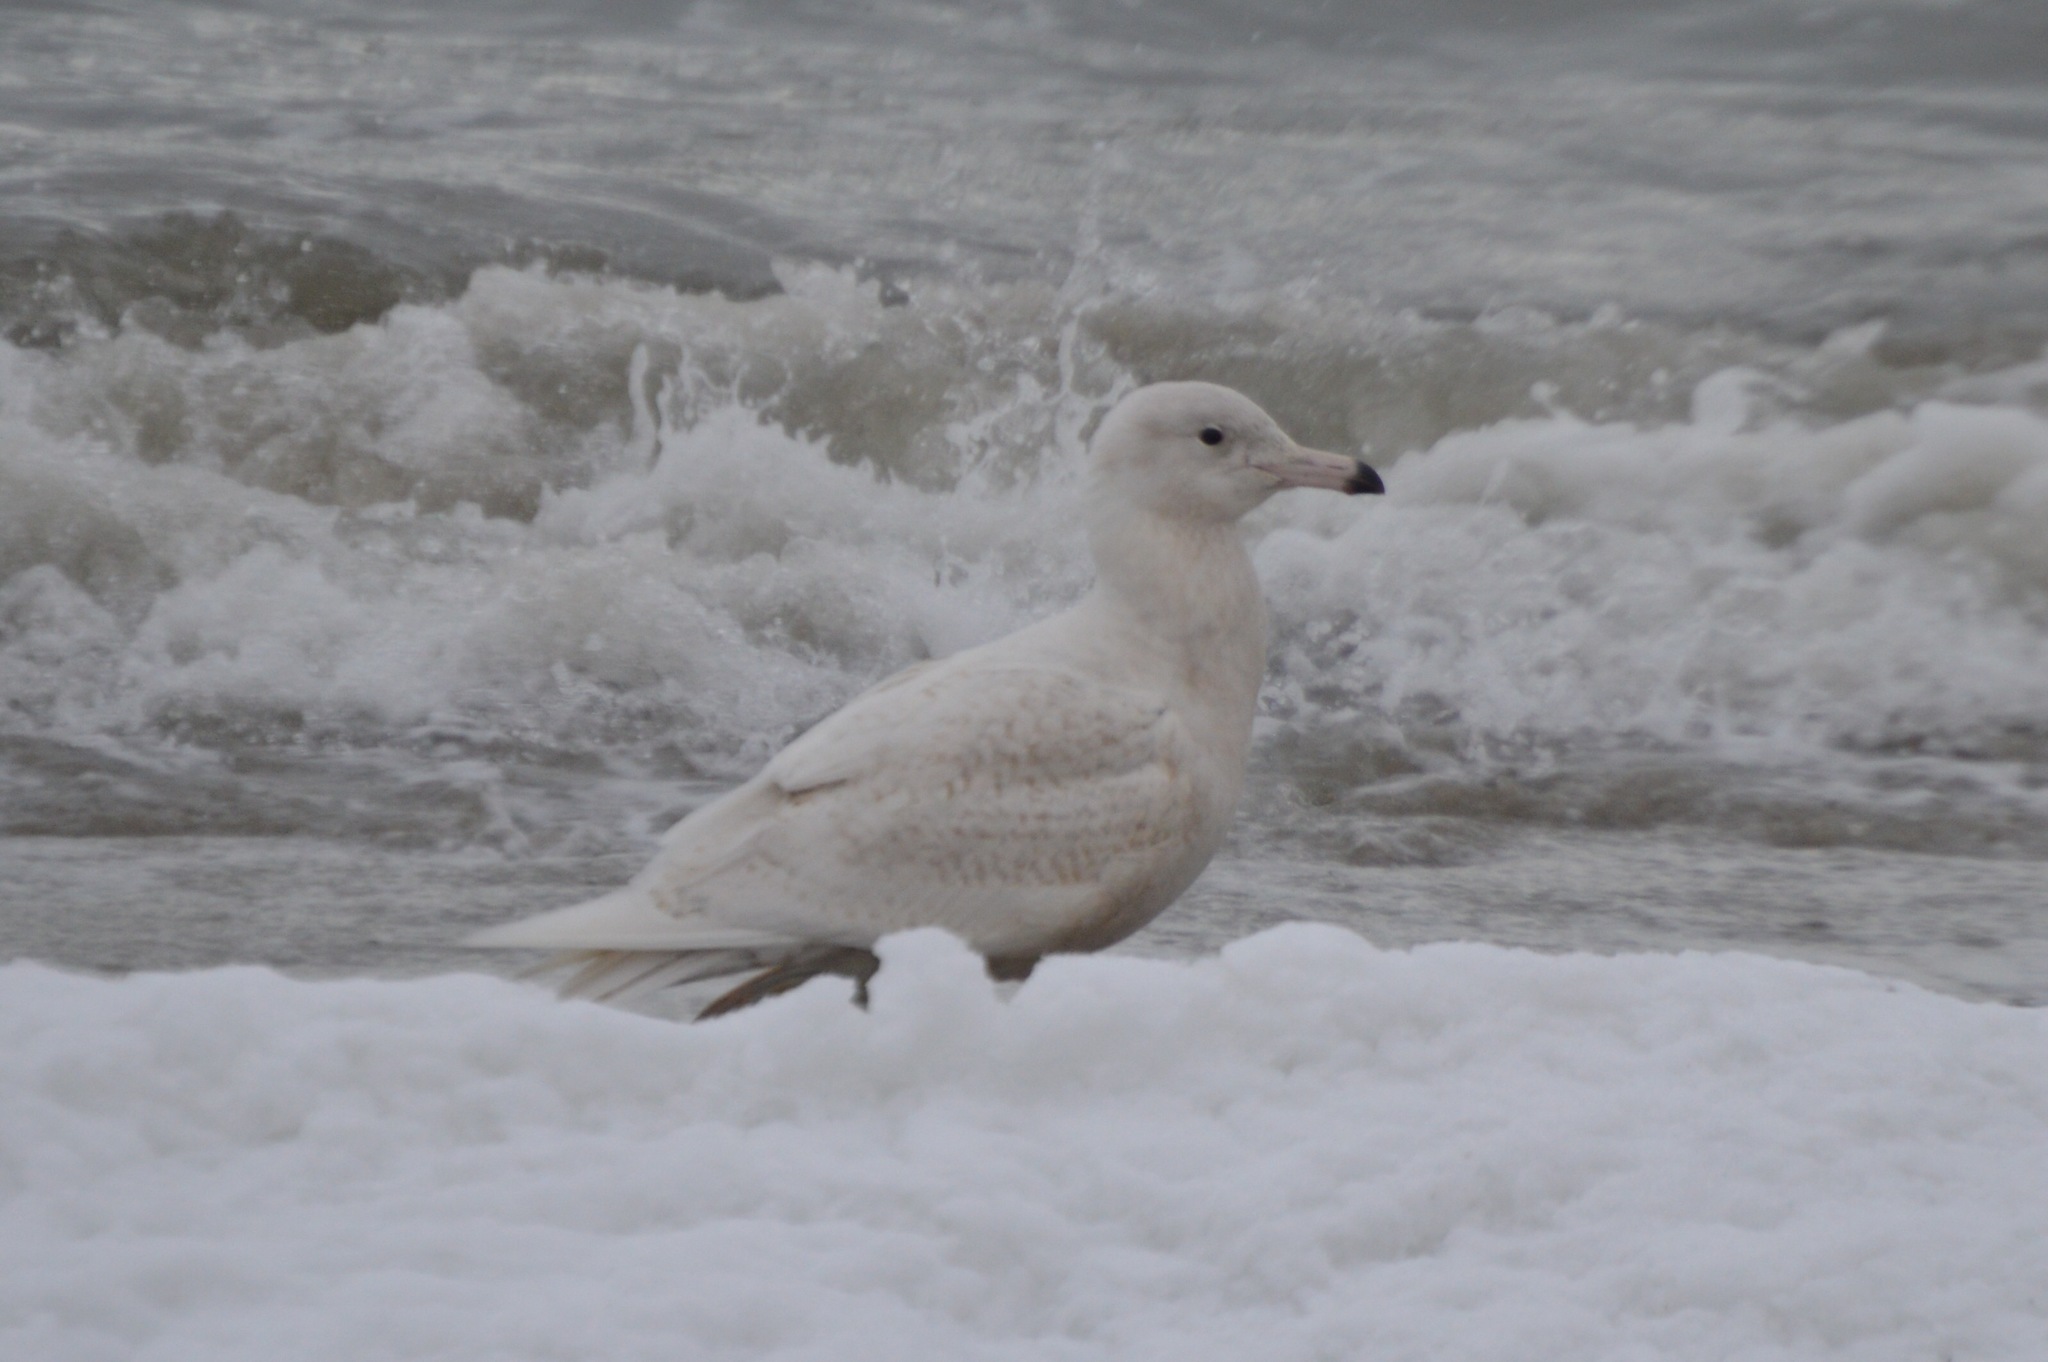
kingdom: Animalia
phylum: Chordata
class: Aves
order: Charadriiformes
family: Laridae
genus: Larus
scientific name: Larus hyperboreus
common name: Glaucous gull
